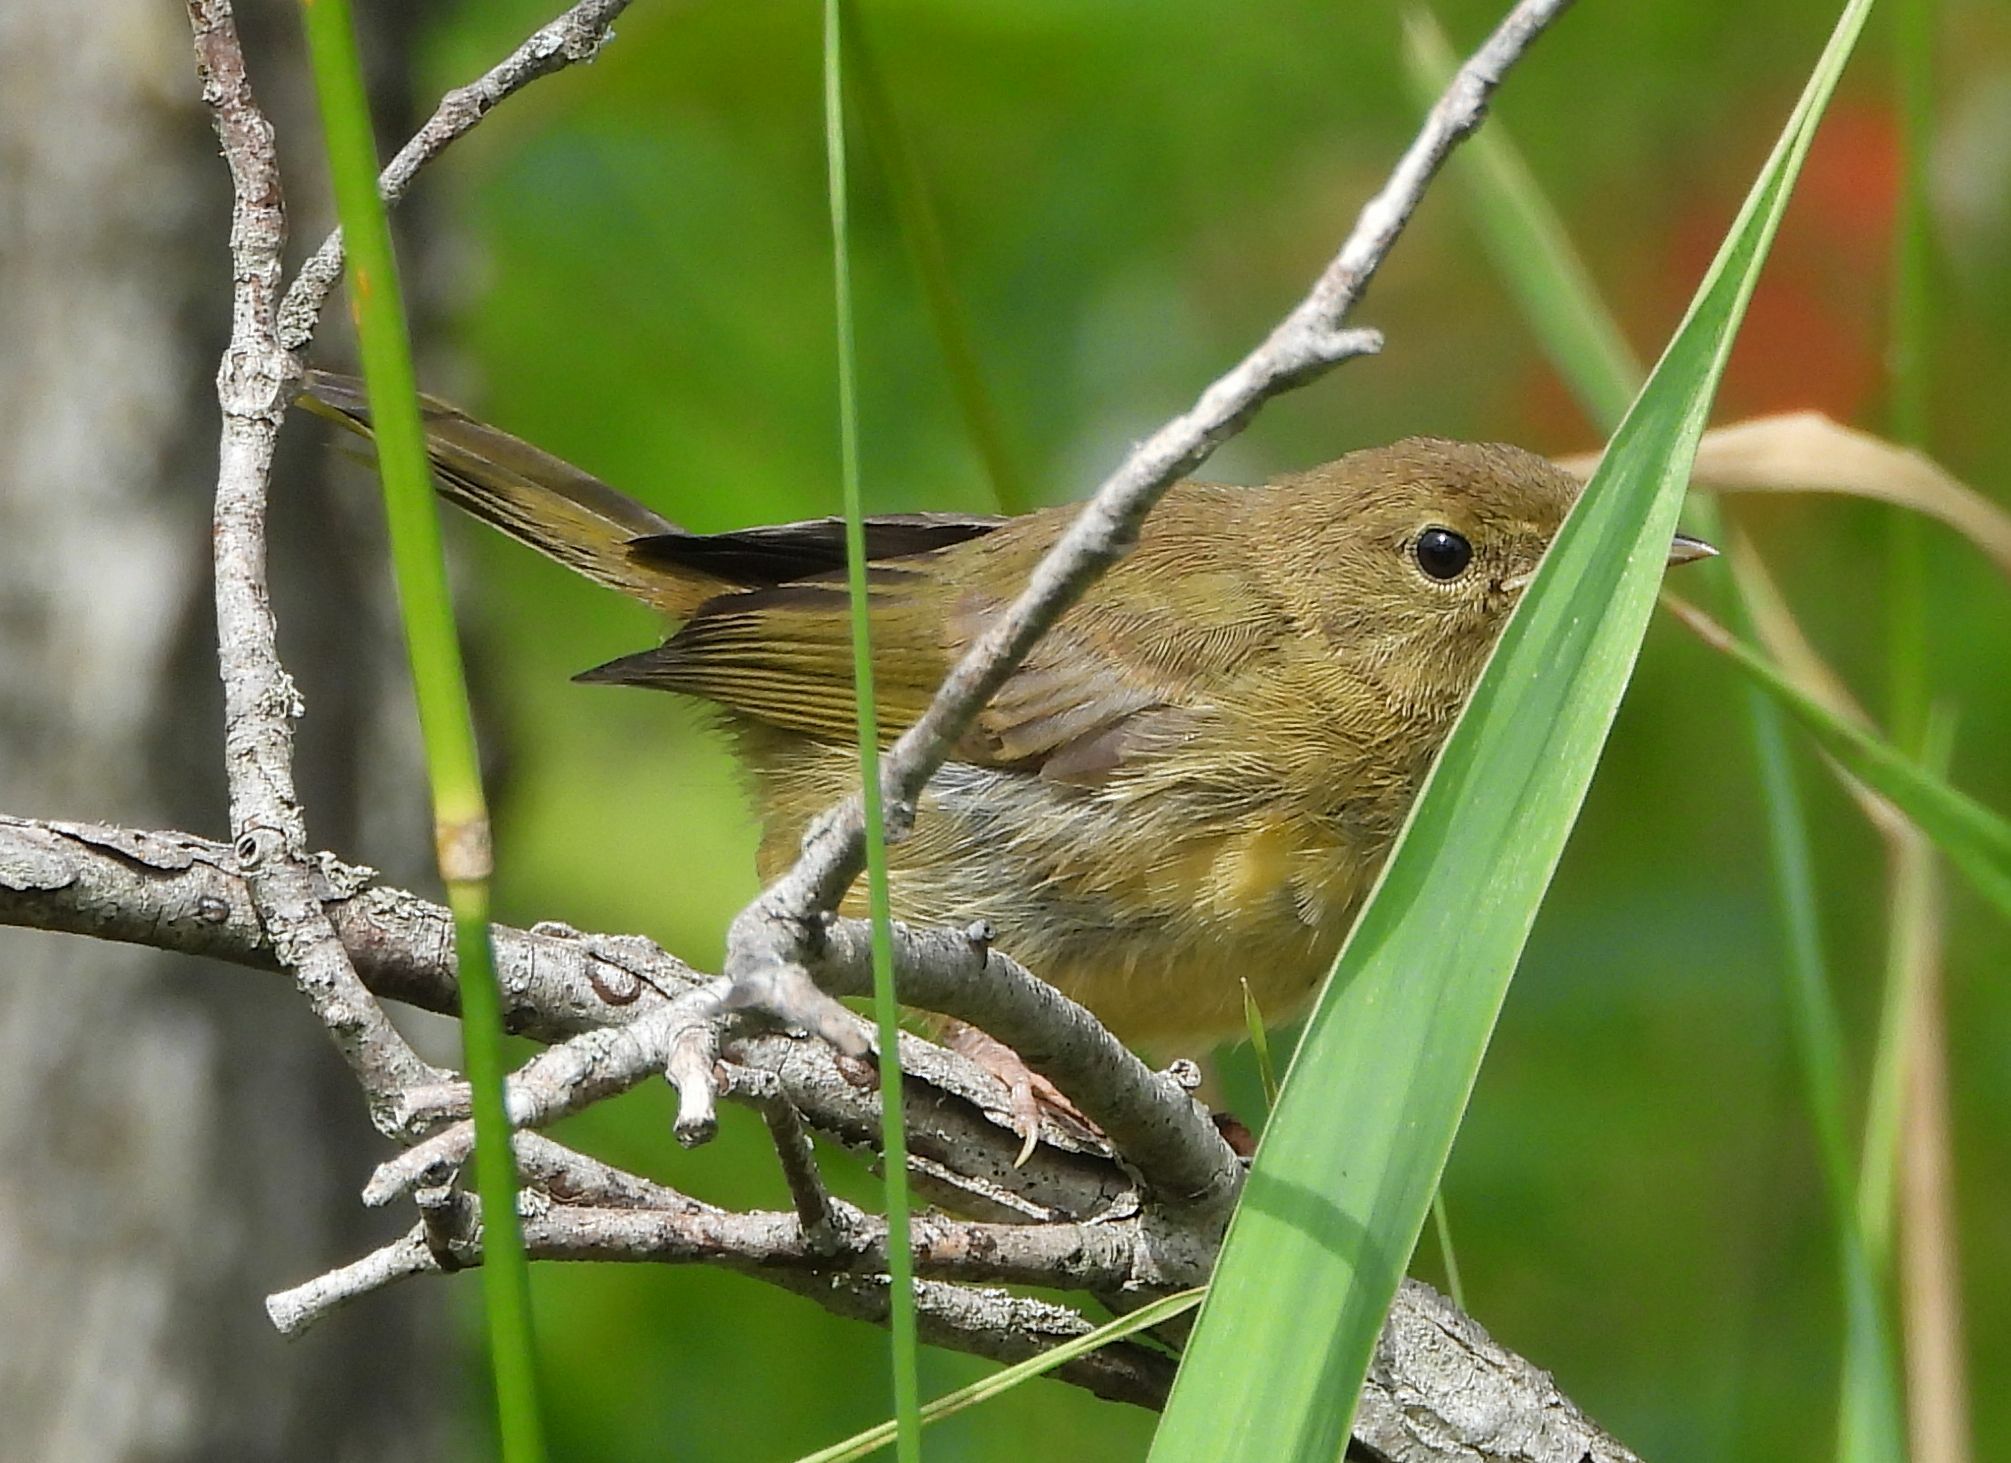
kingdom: Animalia
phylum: Chordata
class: Aves
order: Passeriformes
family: Parulidae
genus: Geothlypis
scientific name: Geothlypis trichas
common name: Common yellowthroat
